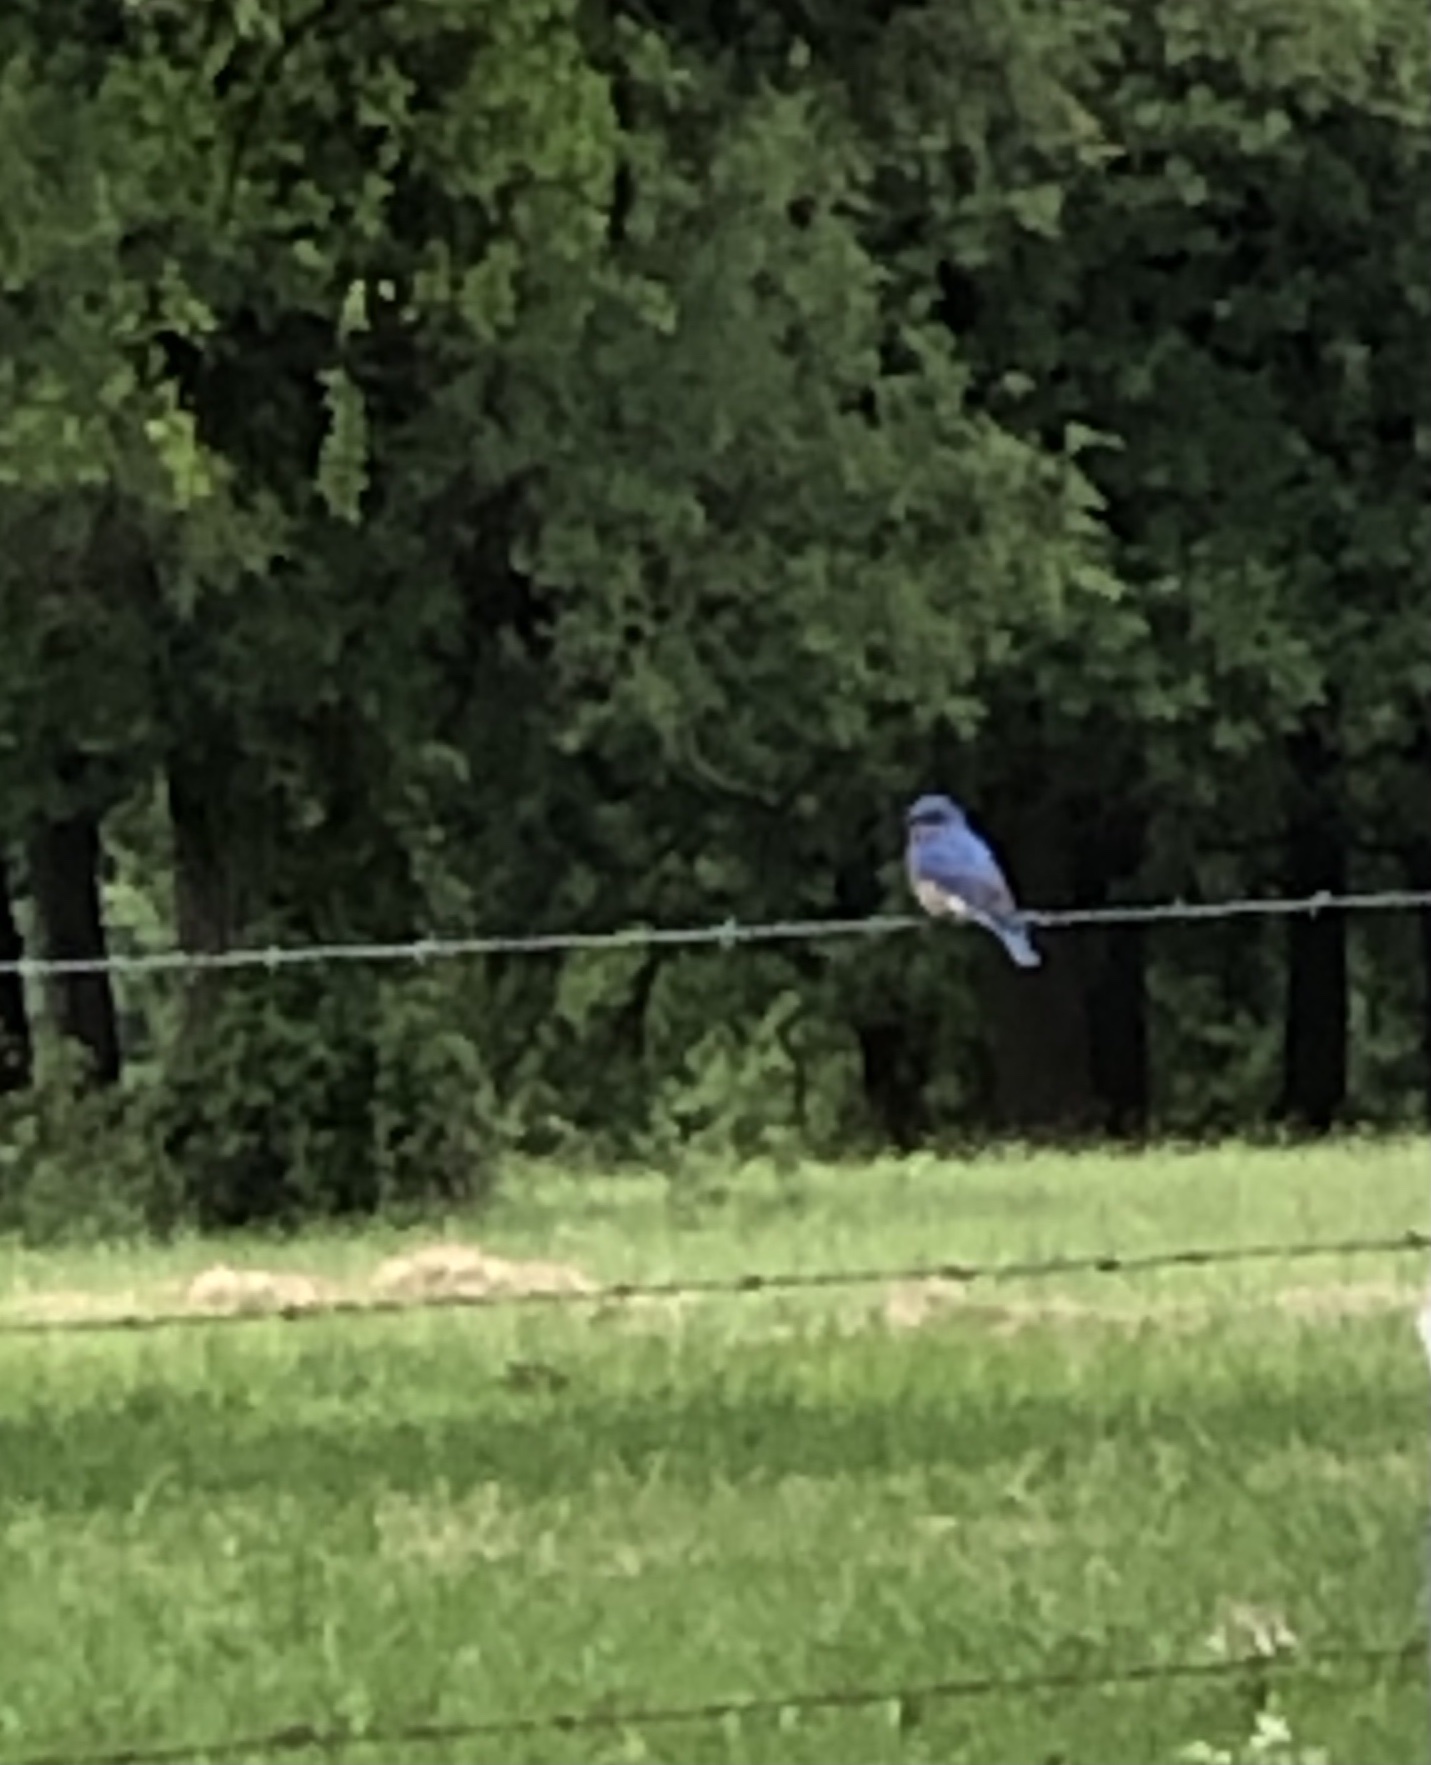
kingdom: Animalia
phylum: Chordata
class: Aves
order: Passeriformes
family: Turdidae
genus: Sialia
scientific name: Sialia sialis
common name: Eastern bluebird
